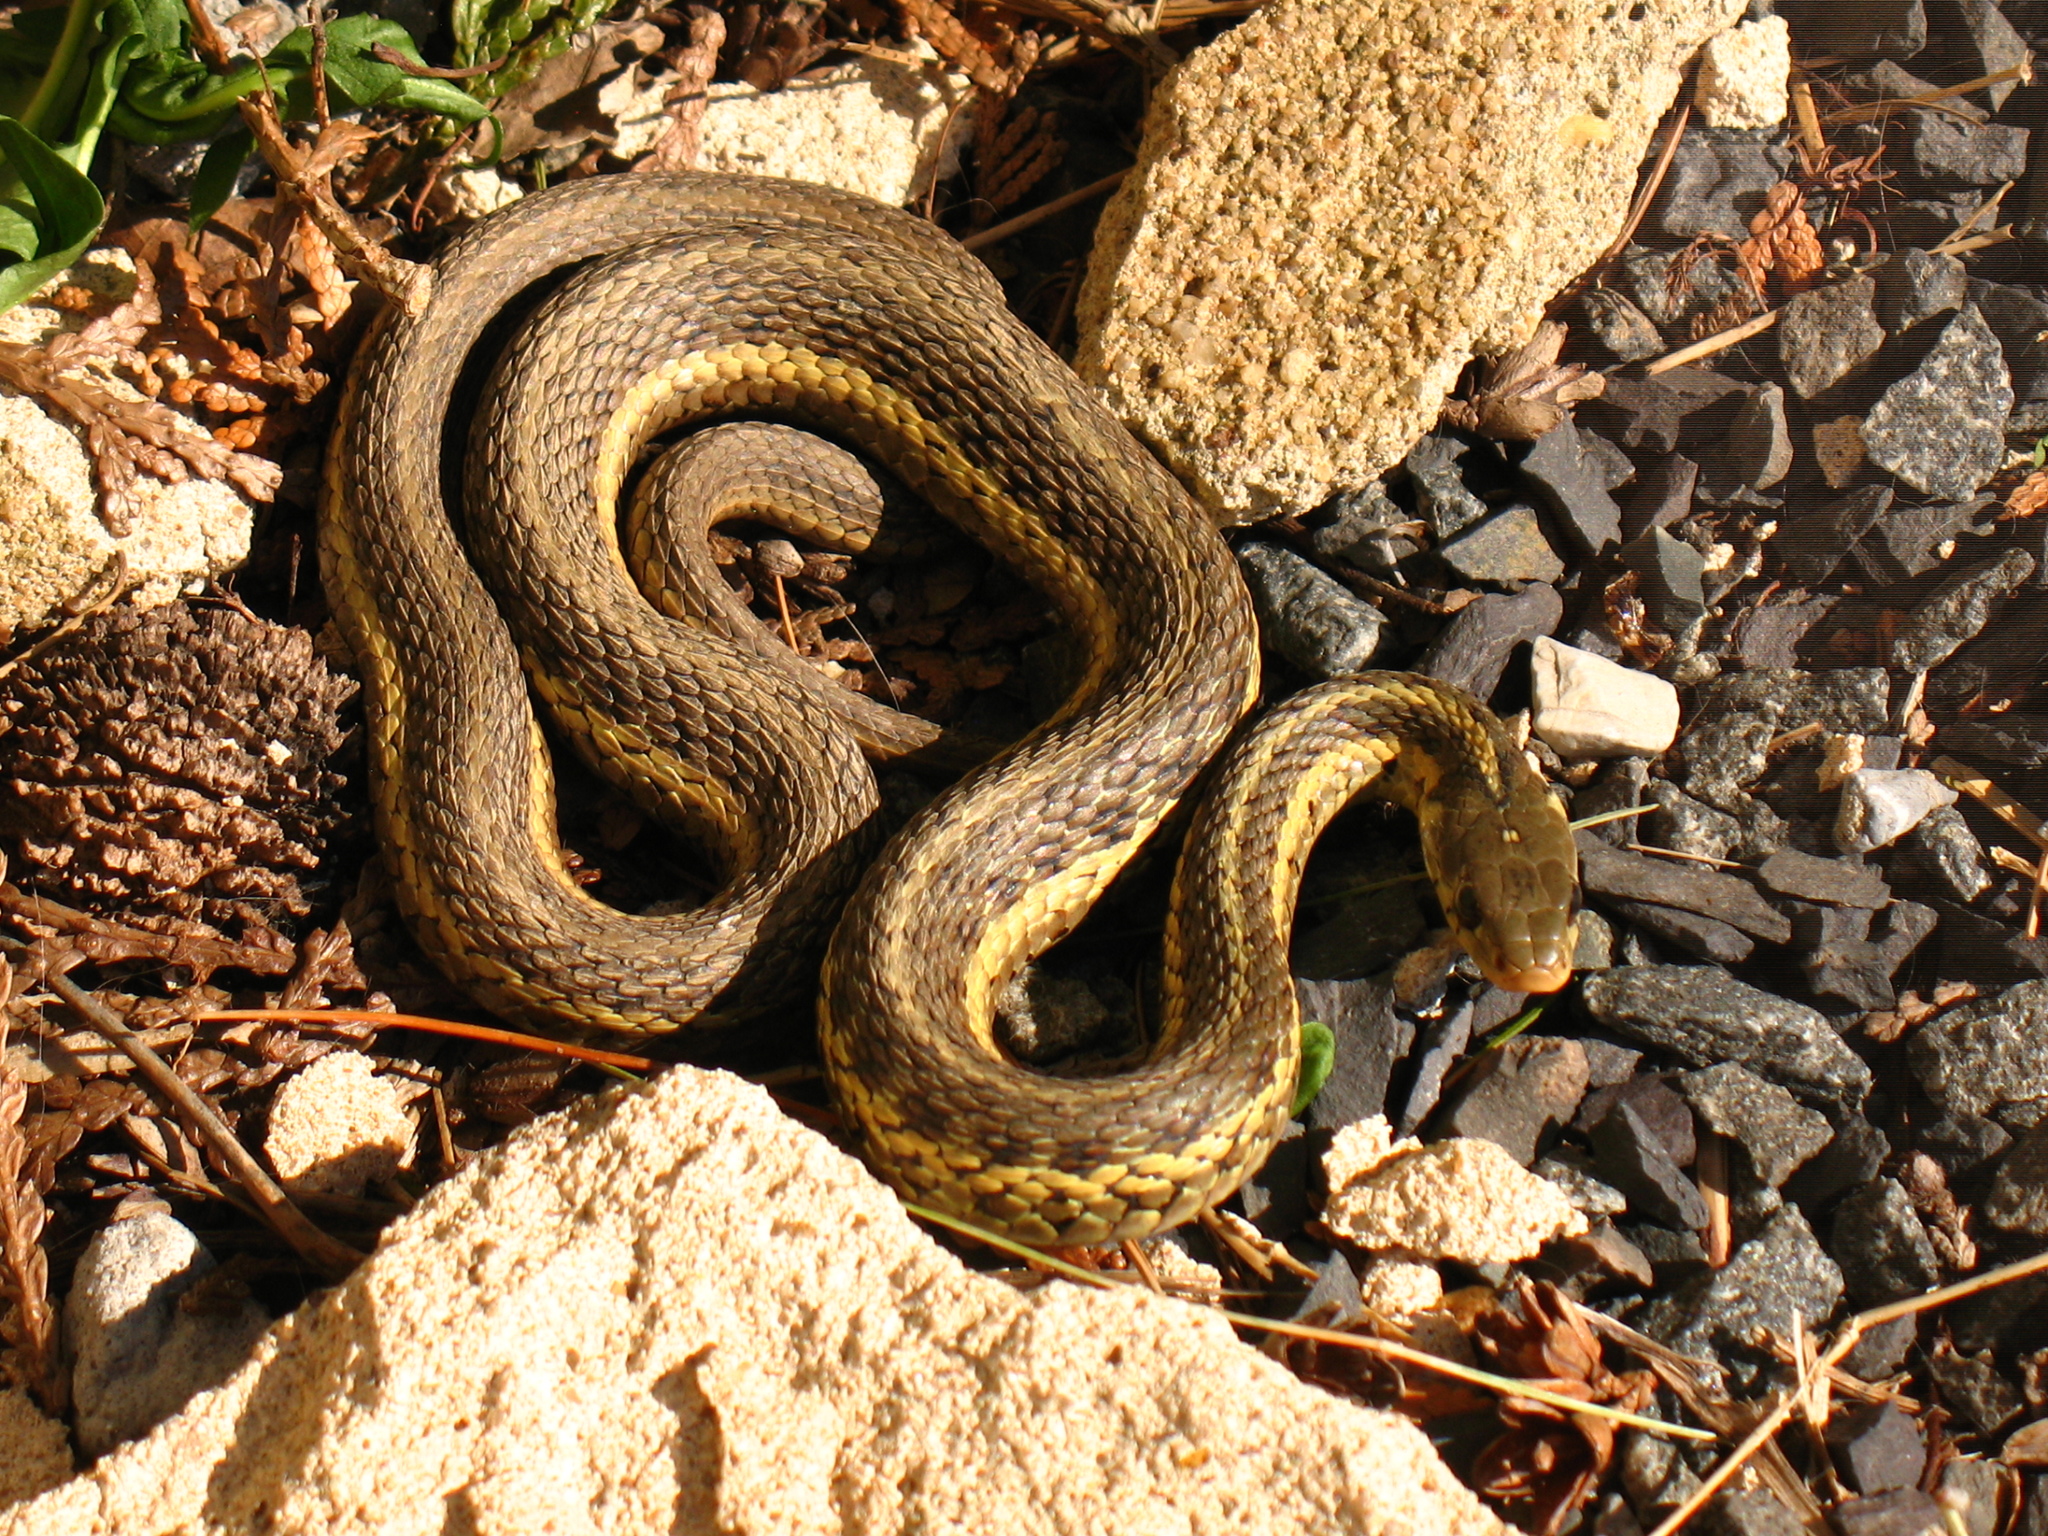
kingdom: Animalia
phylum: Chordata
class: Squamata
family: Colubridae
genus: Thamnophis
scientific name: Thamnophis sirtalis
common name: Common garter snake
